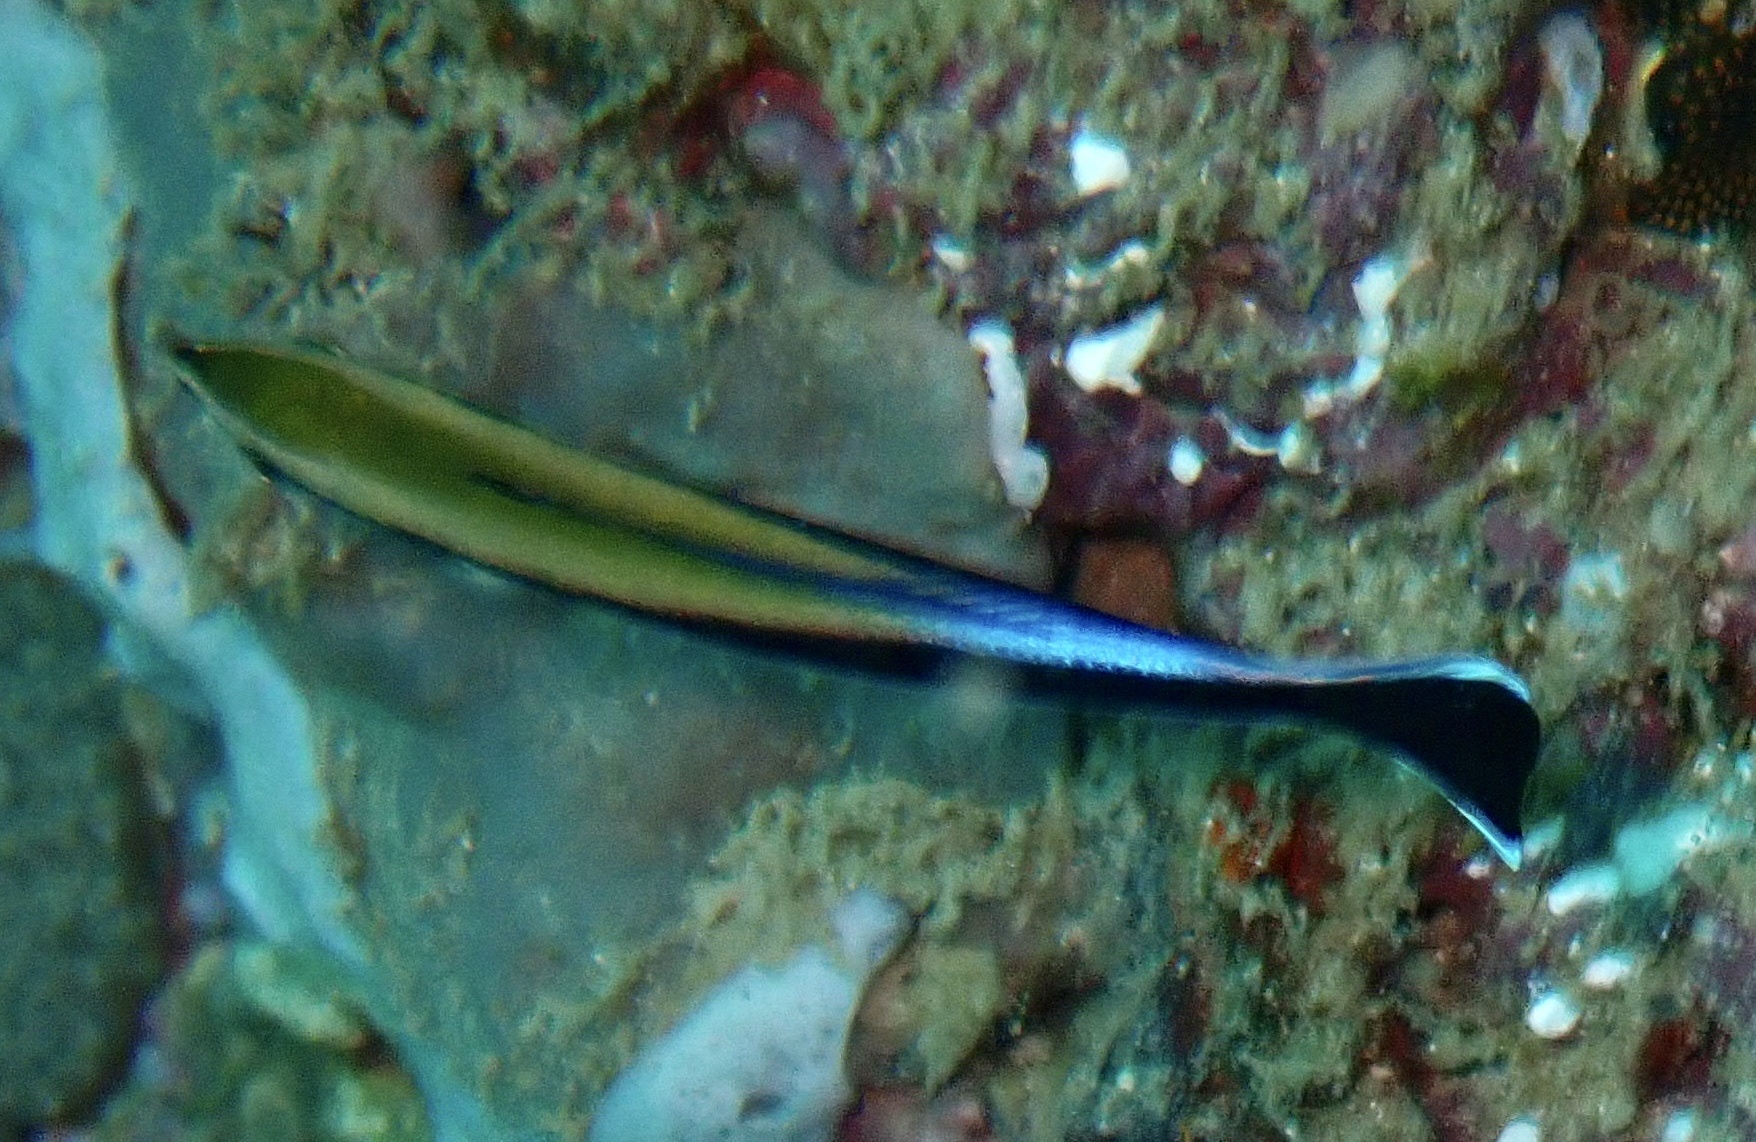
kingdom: Animalia
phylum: Chordata
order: Perciformes
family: Labridae
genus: Labroides
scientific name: Labroides dimidiatus
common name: Blue diesel wrasse
